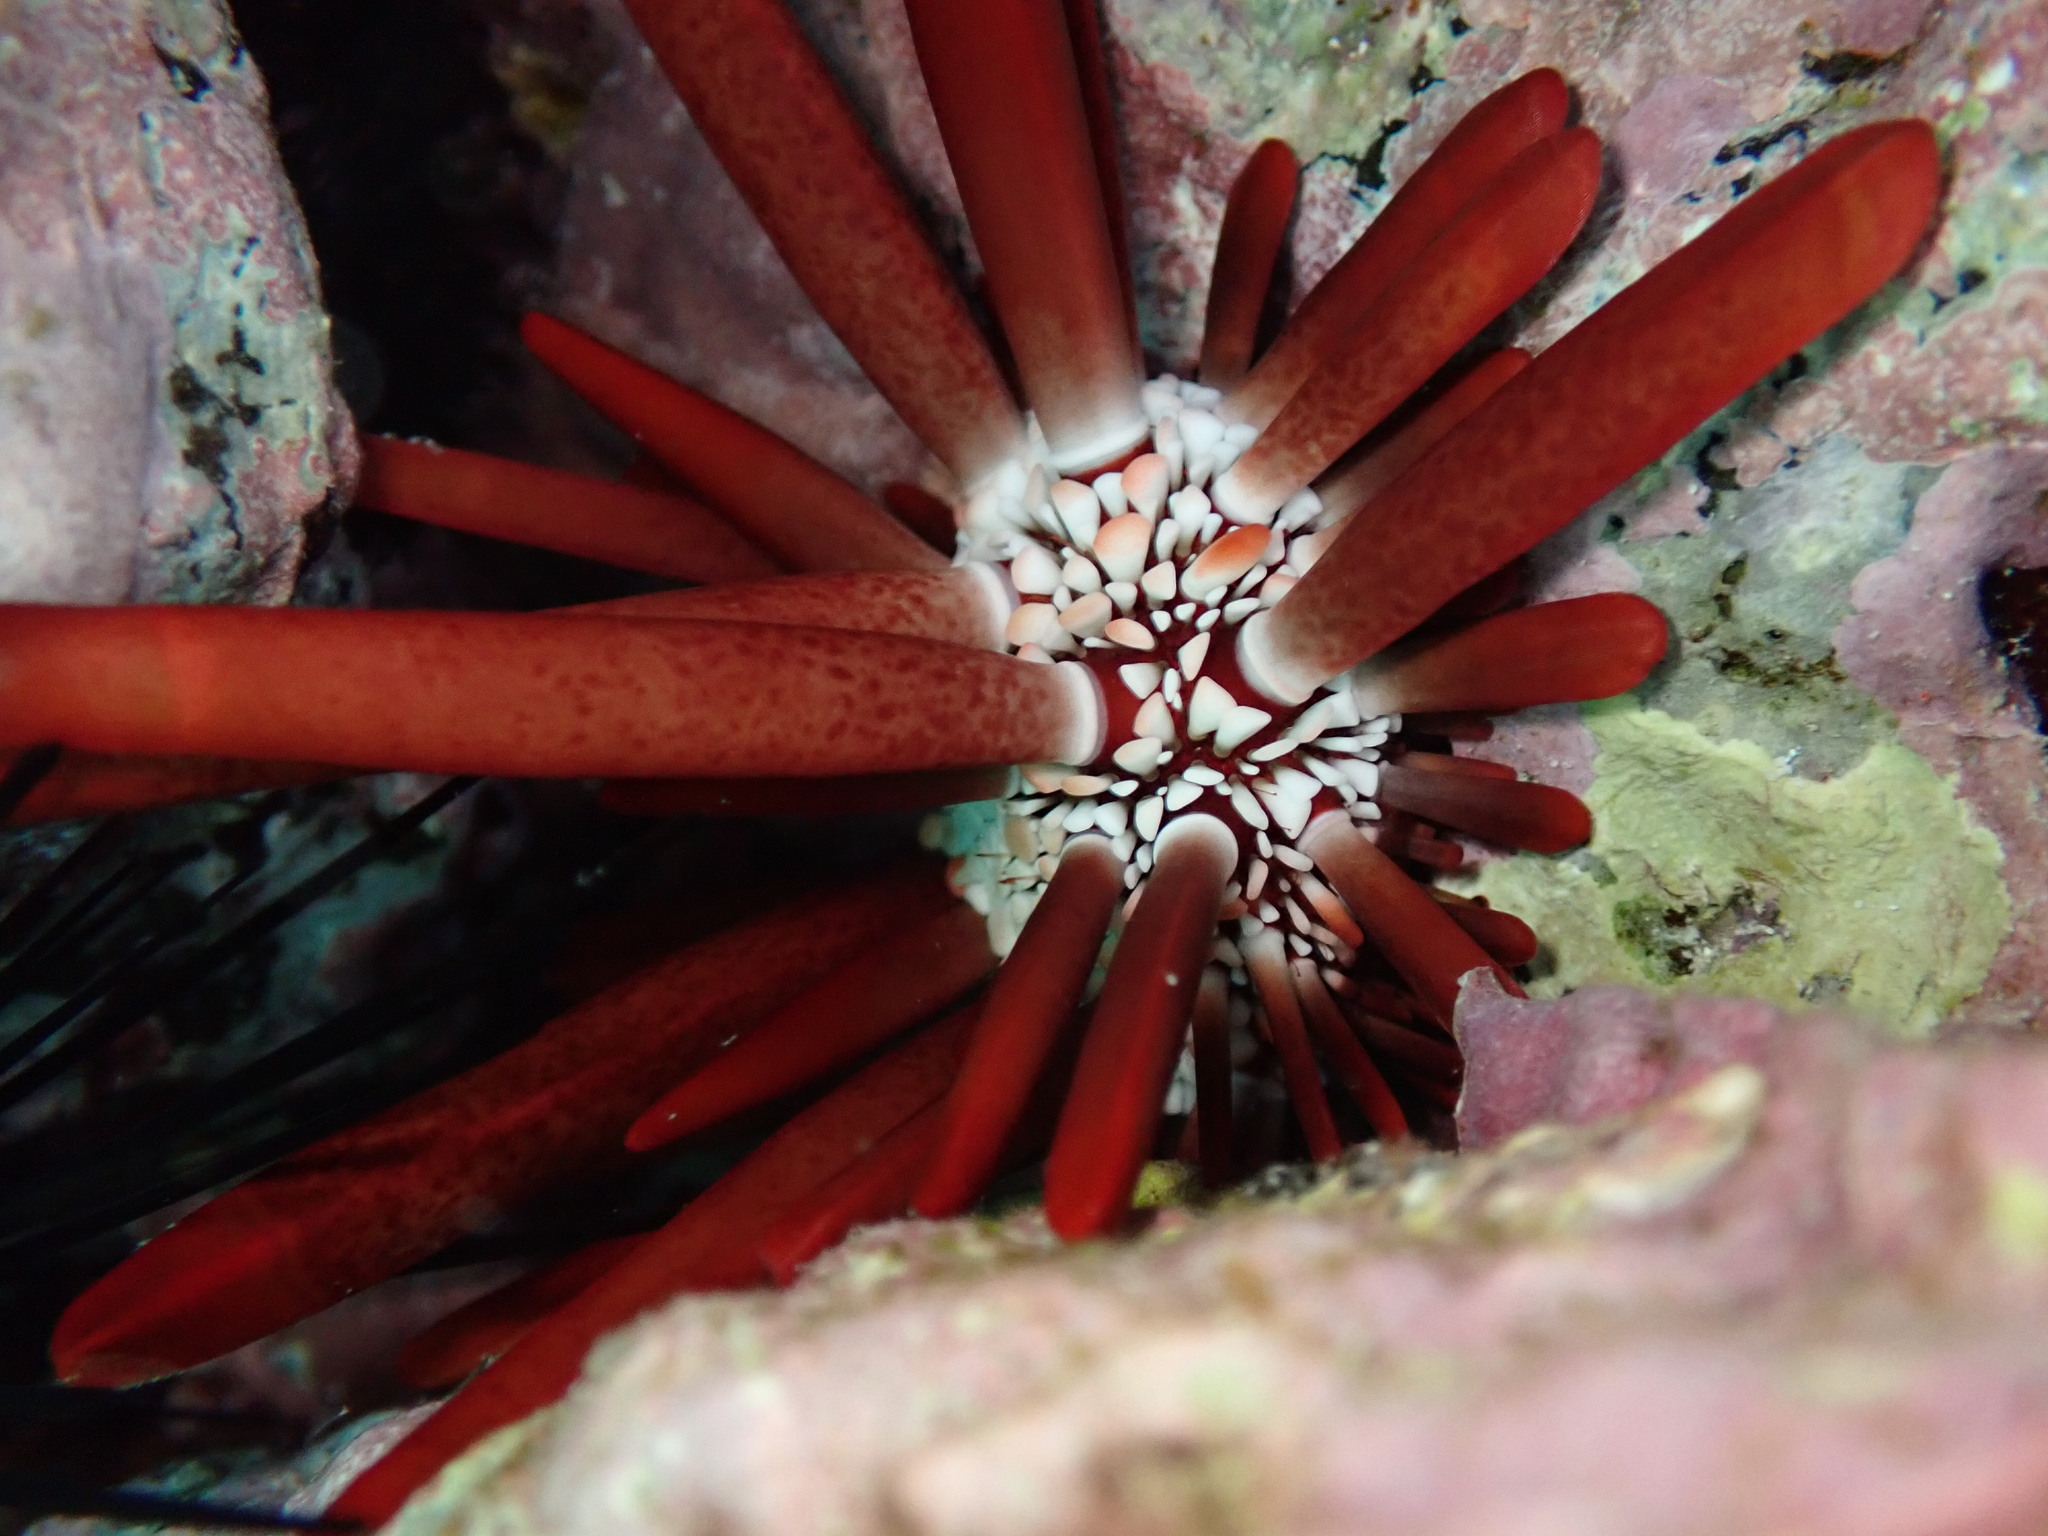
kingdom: Animalia
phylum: Echinodermata
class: Echinoidea
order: Camarodonta
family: Echinometridae
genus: Heterocentrotus
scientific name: Heterocentrotus mamillatus
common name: Slate pencil urchin
